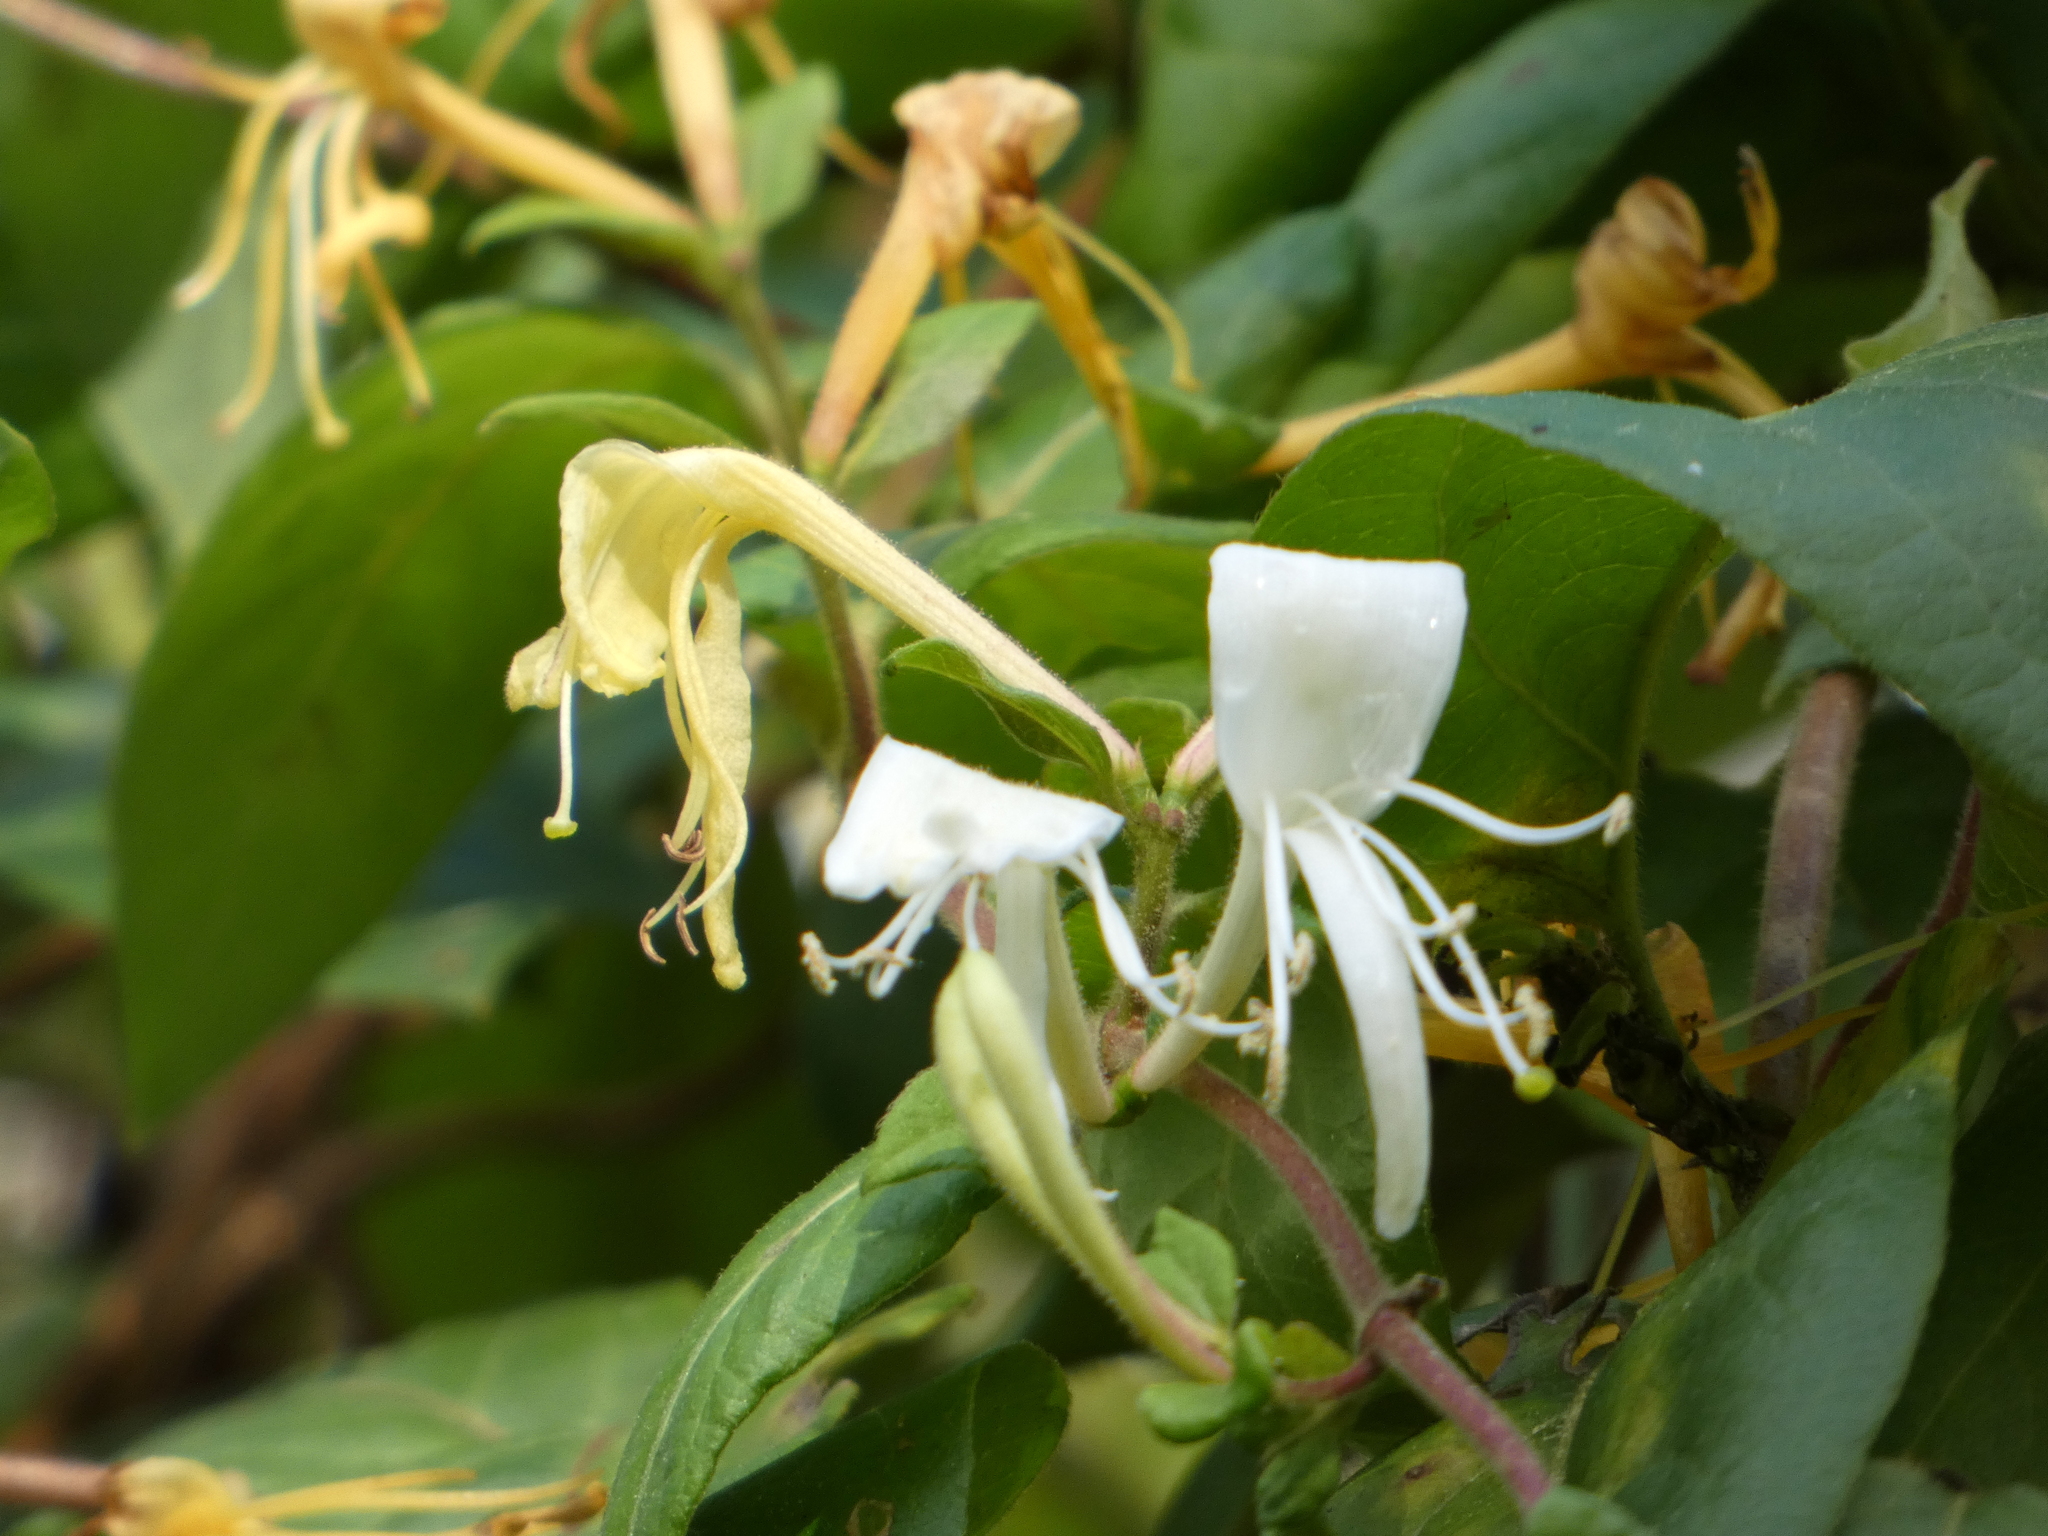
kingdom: Plantae
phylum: Tracheophyta
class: Magnoliopsida
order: Dipsacales
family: Caprifoliaceae
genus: Lonicera
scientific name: Lonicera japonica
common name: Japanese honeysuckle
